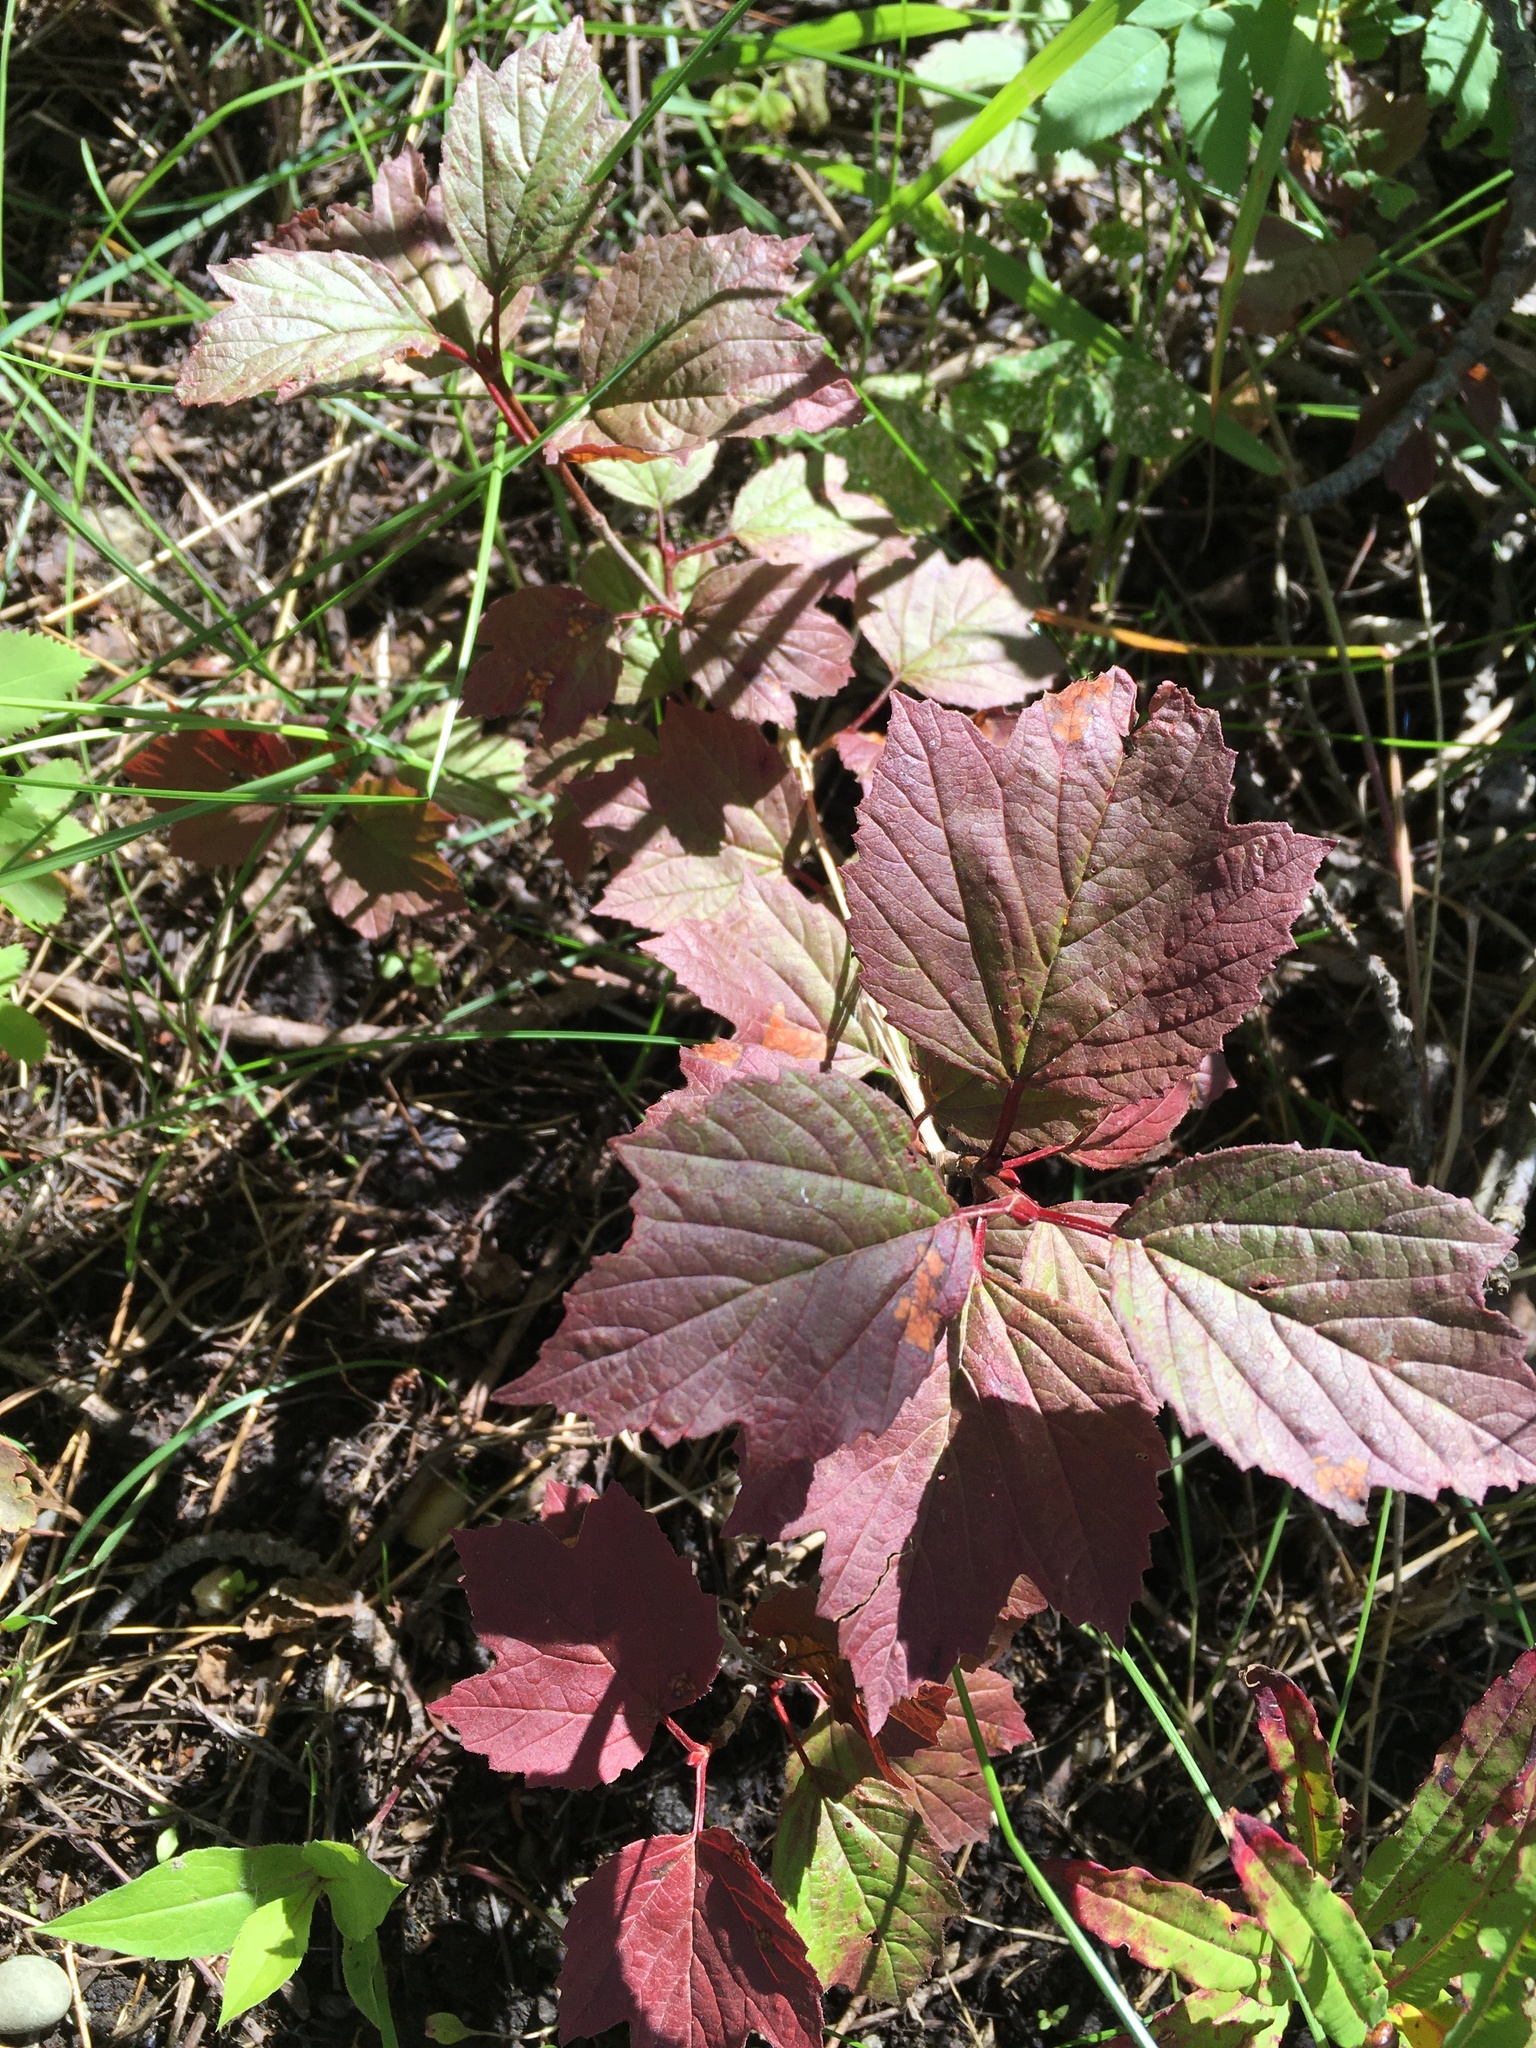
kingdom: Plantae
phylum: Tracheophyta
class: Magnoliopsida
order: Dipsacales
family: Viburnaceae
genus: Viburnum
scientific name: Viburnum edule
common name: Mooseberry
